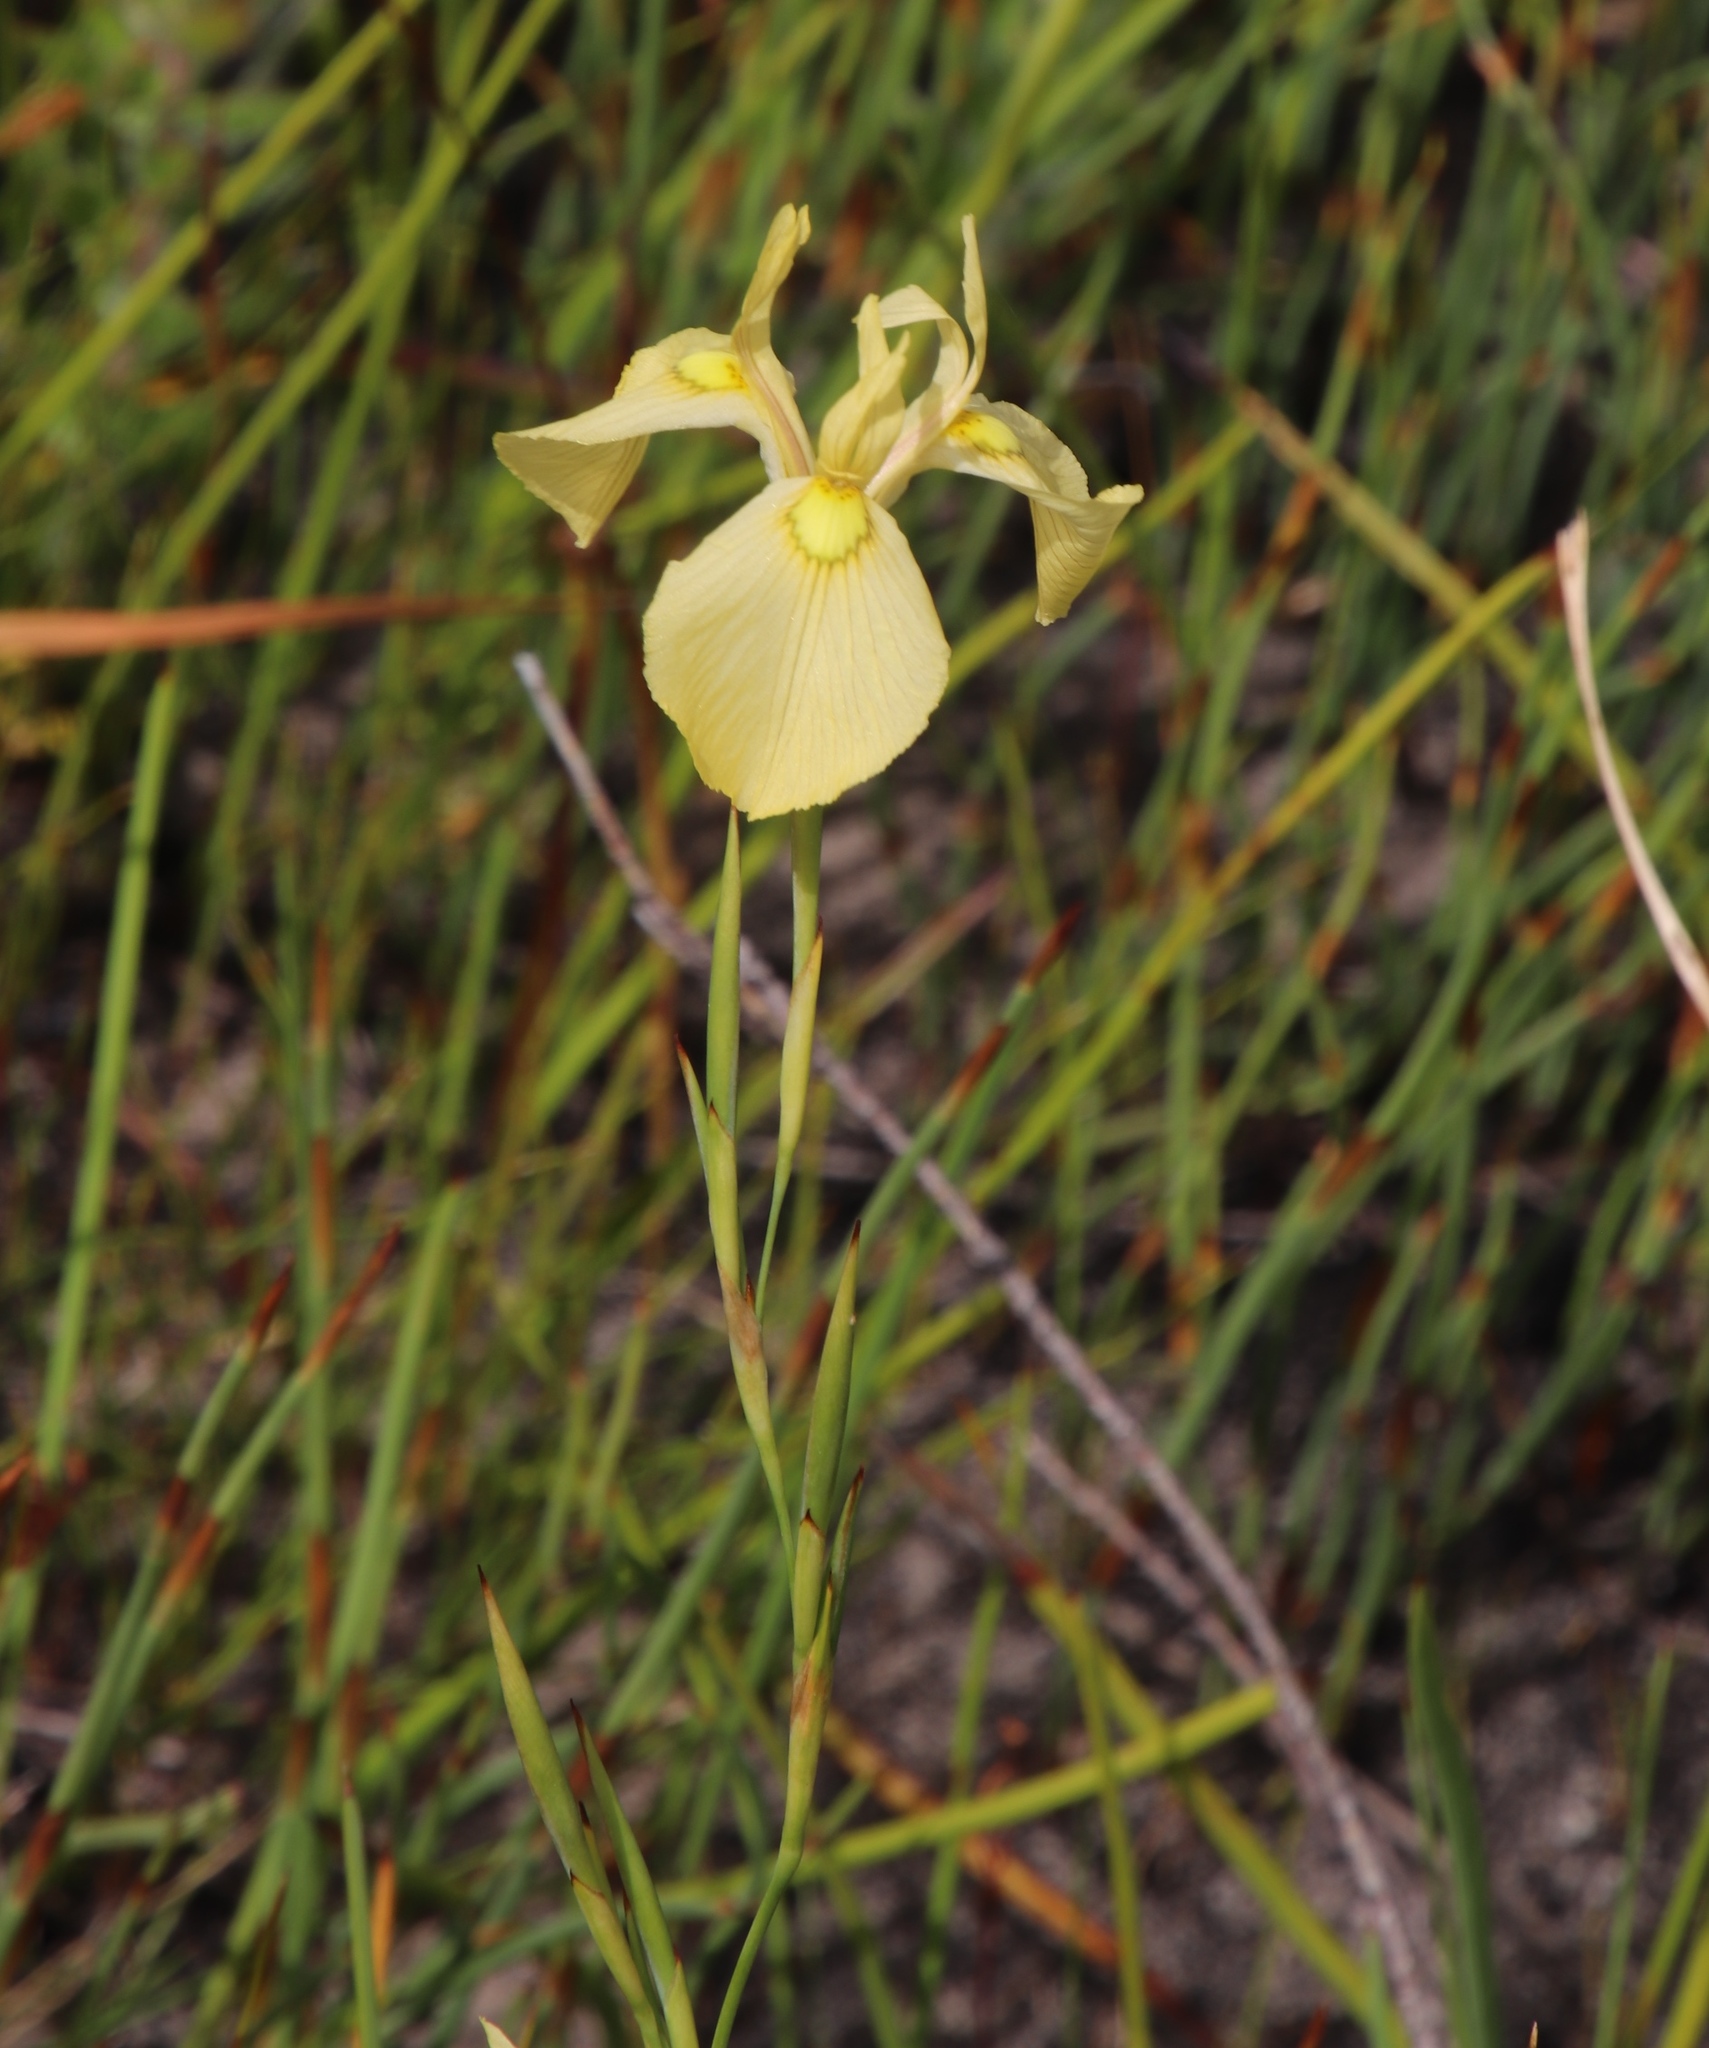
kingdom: Plantae
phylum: Tracheophyta
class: Liliopsida
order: Asparagales
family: Iridaceae
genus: Moraea
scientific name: Moraea cooperi
